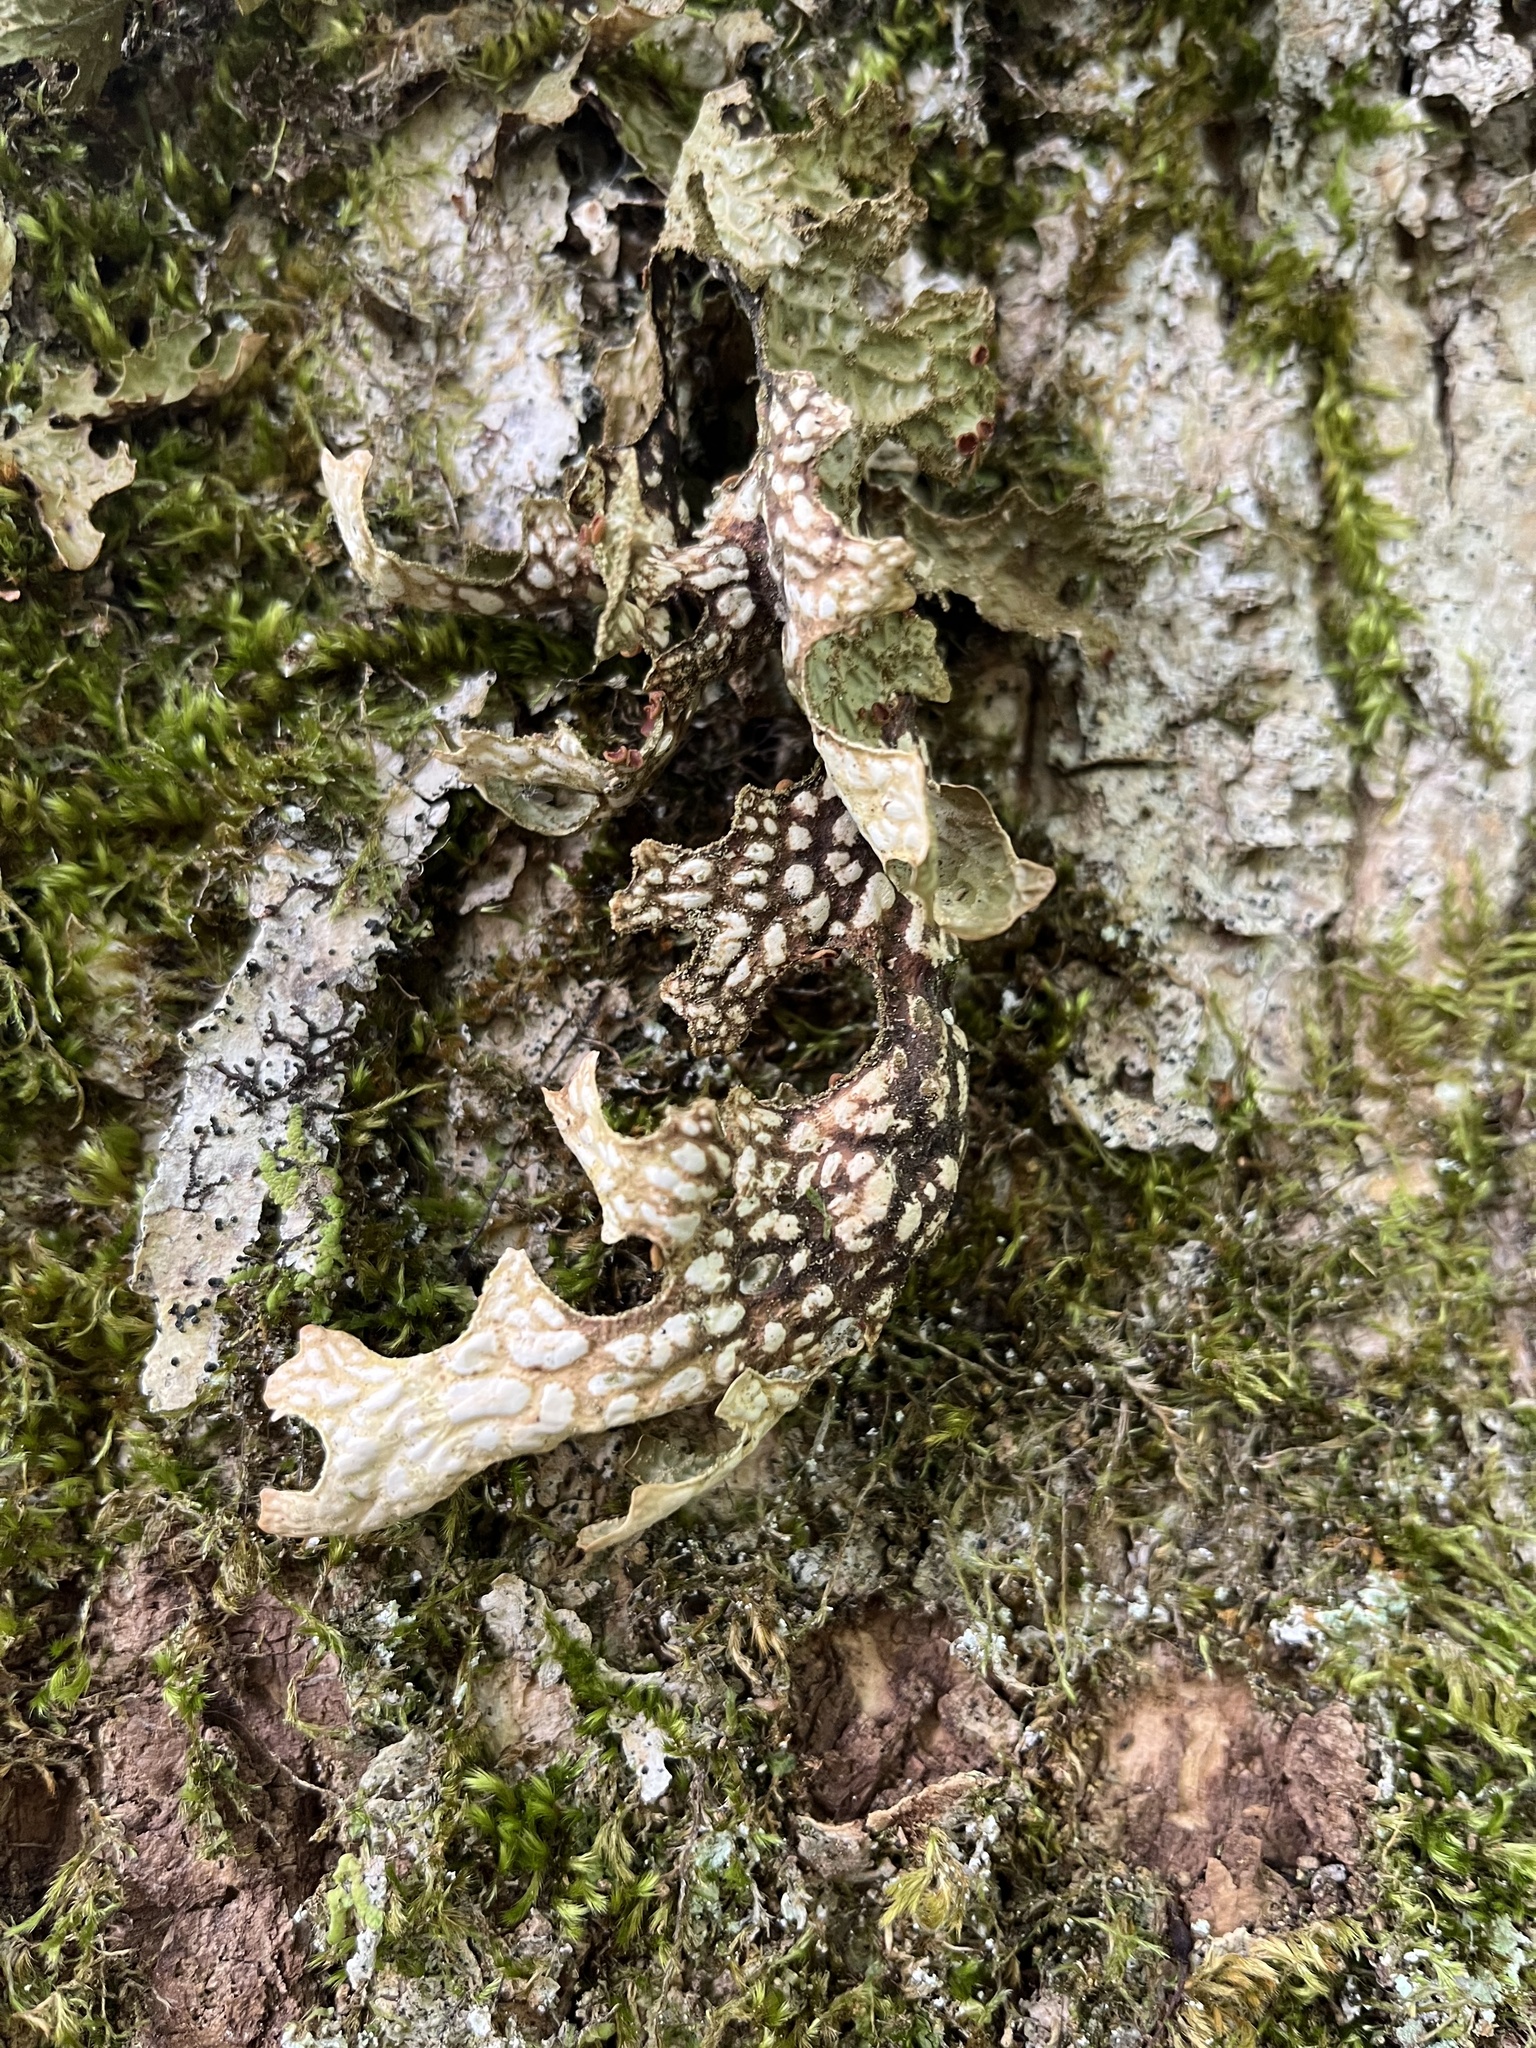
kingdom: Fungi
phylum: Ascomycota
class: Lecanoromycetes
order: Peltigerales
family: Lobariaceae
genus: Lobaria
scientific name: Lobaria pulmonaria
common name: Lungwort
